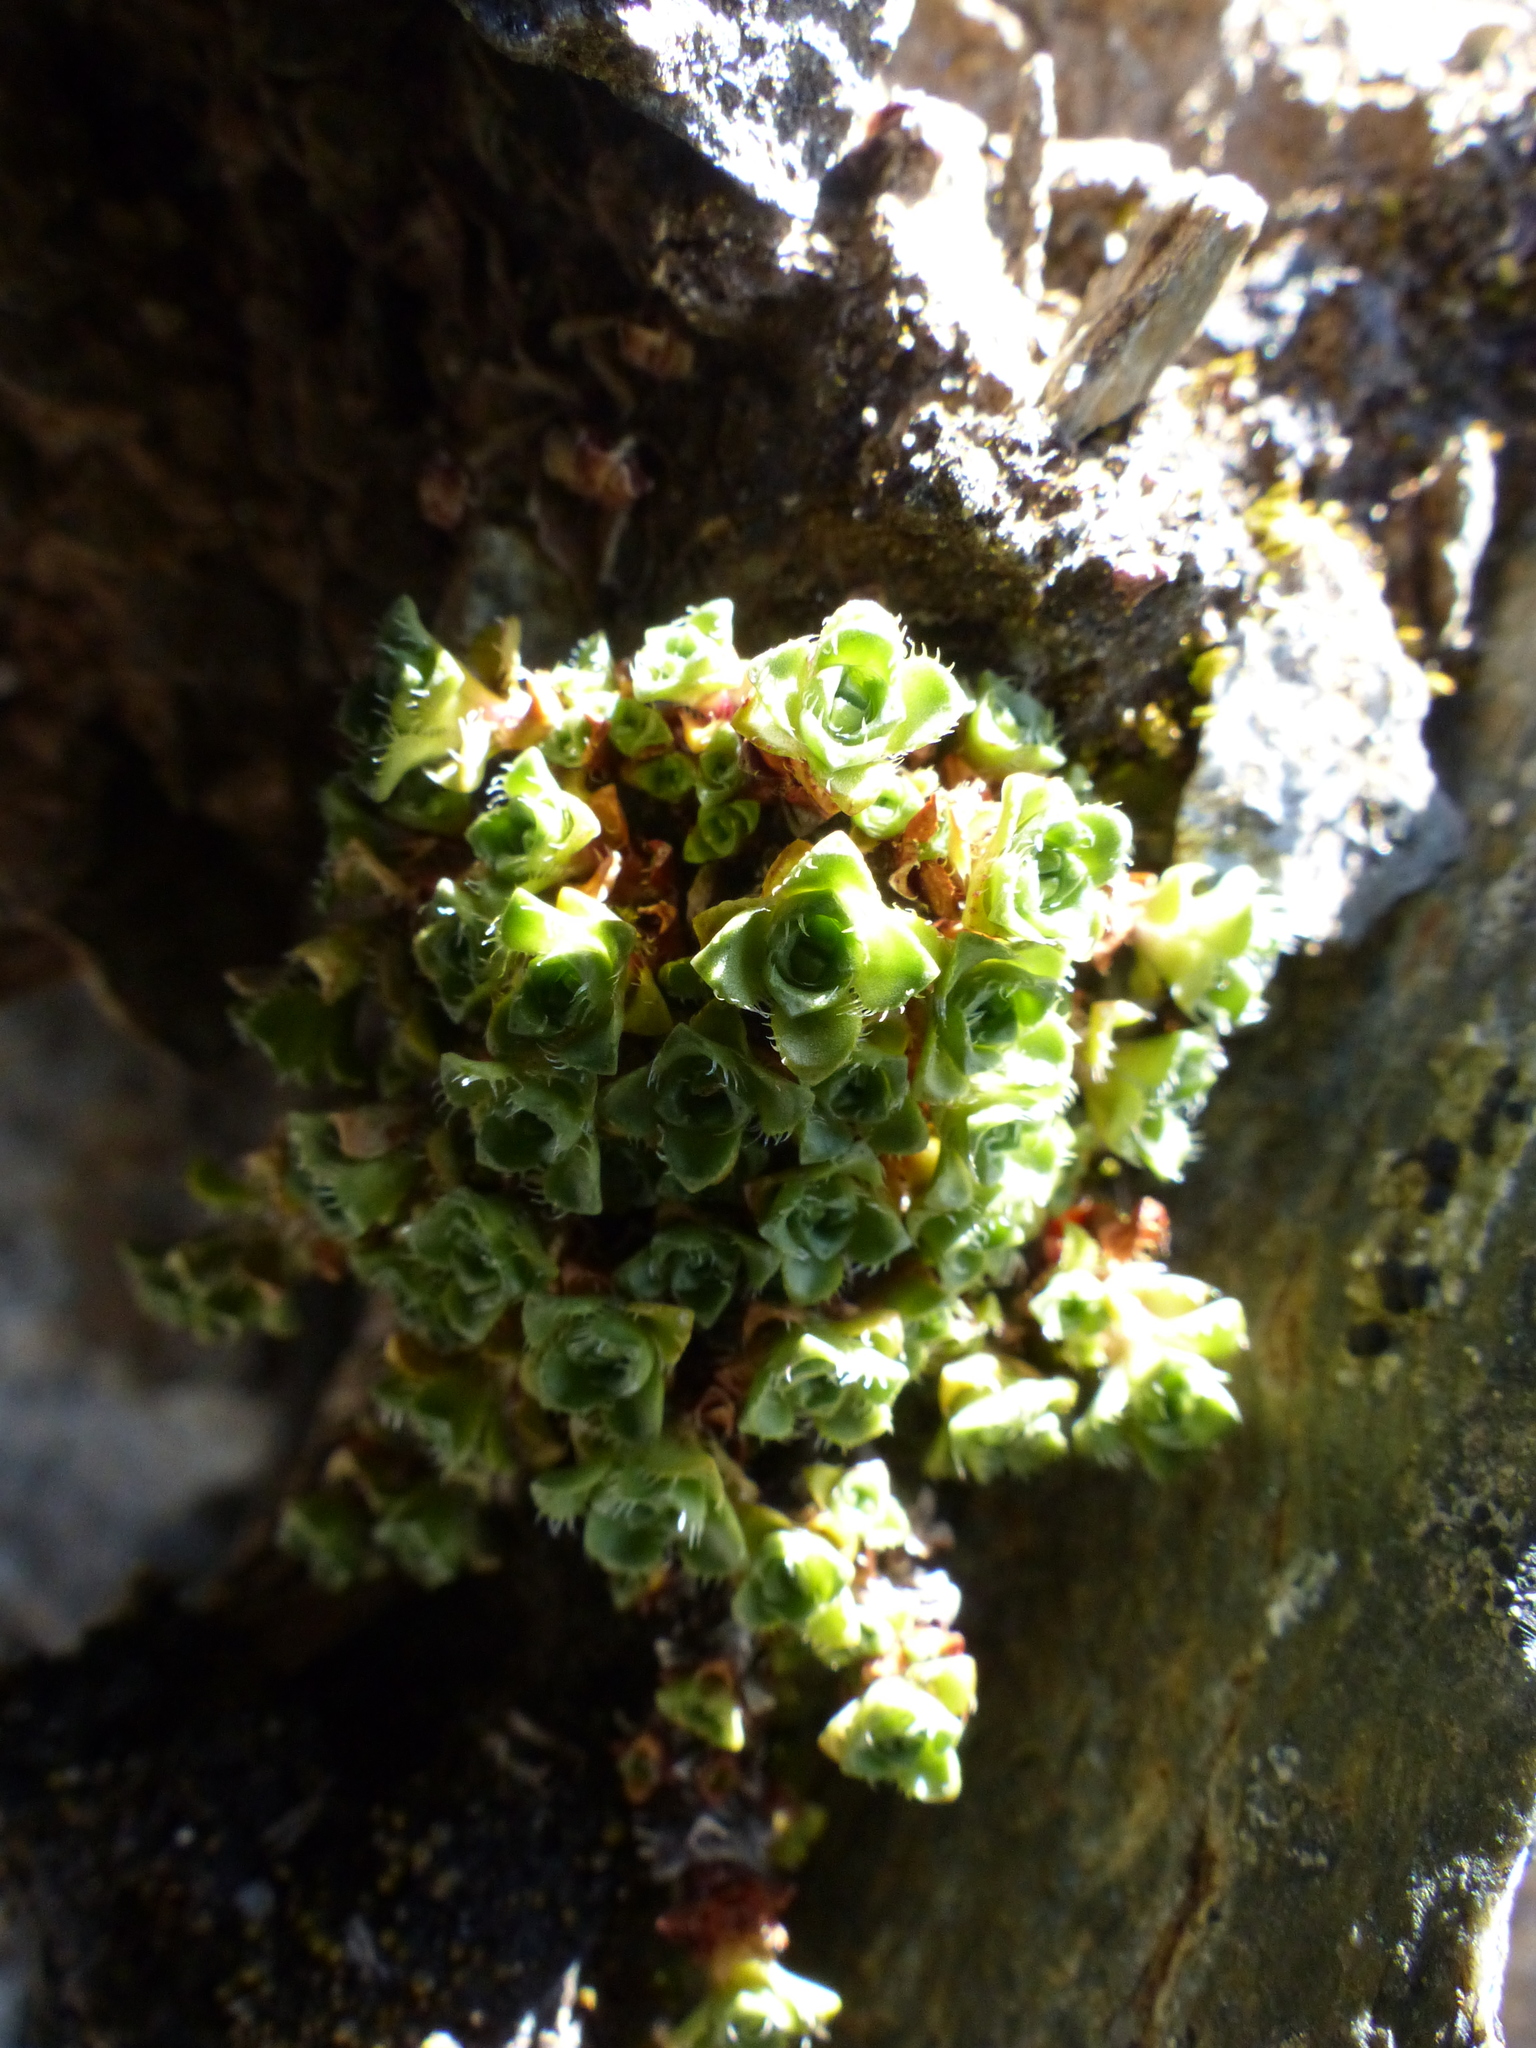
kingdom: Plantae
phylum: Tracheophyta
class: Magnoliopsida
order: Saxifragales
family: Saxifragaceae
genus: Saxifraga
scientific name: Saxifraga oppositifolia
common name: Purple saxifrage
